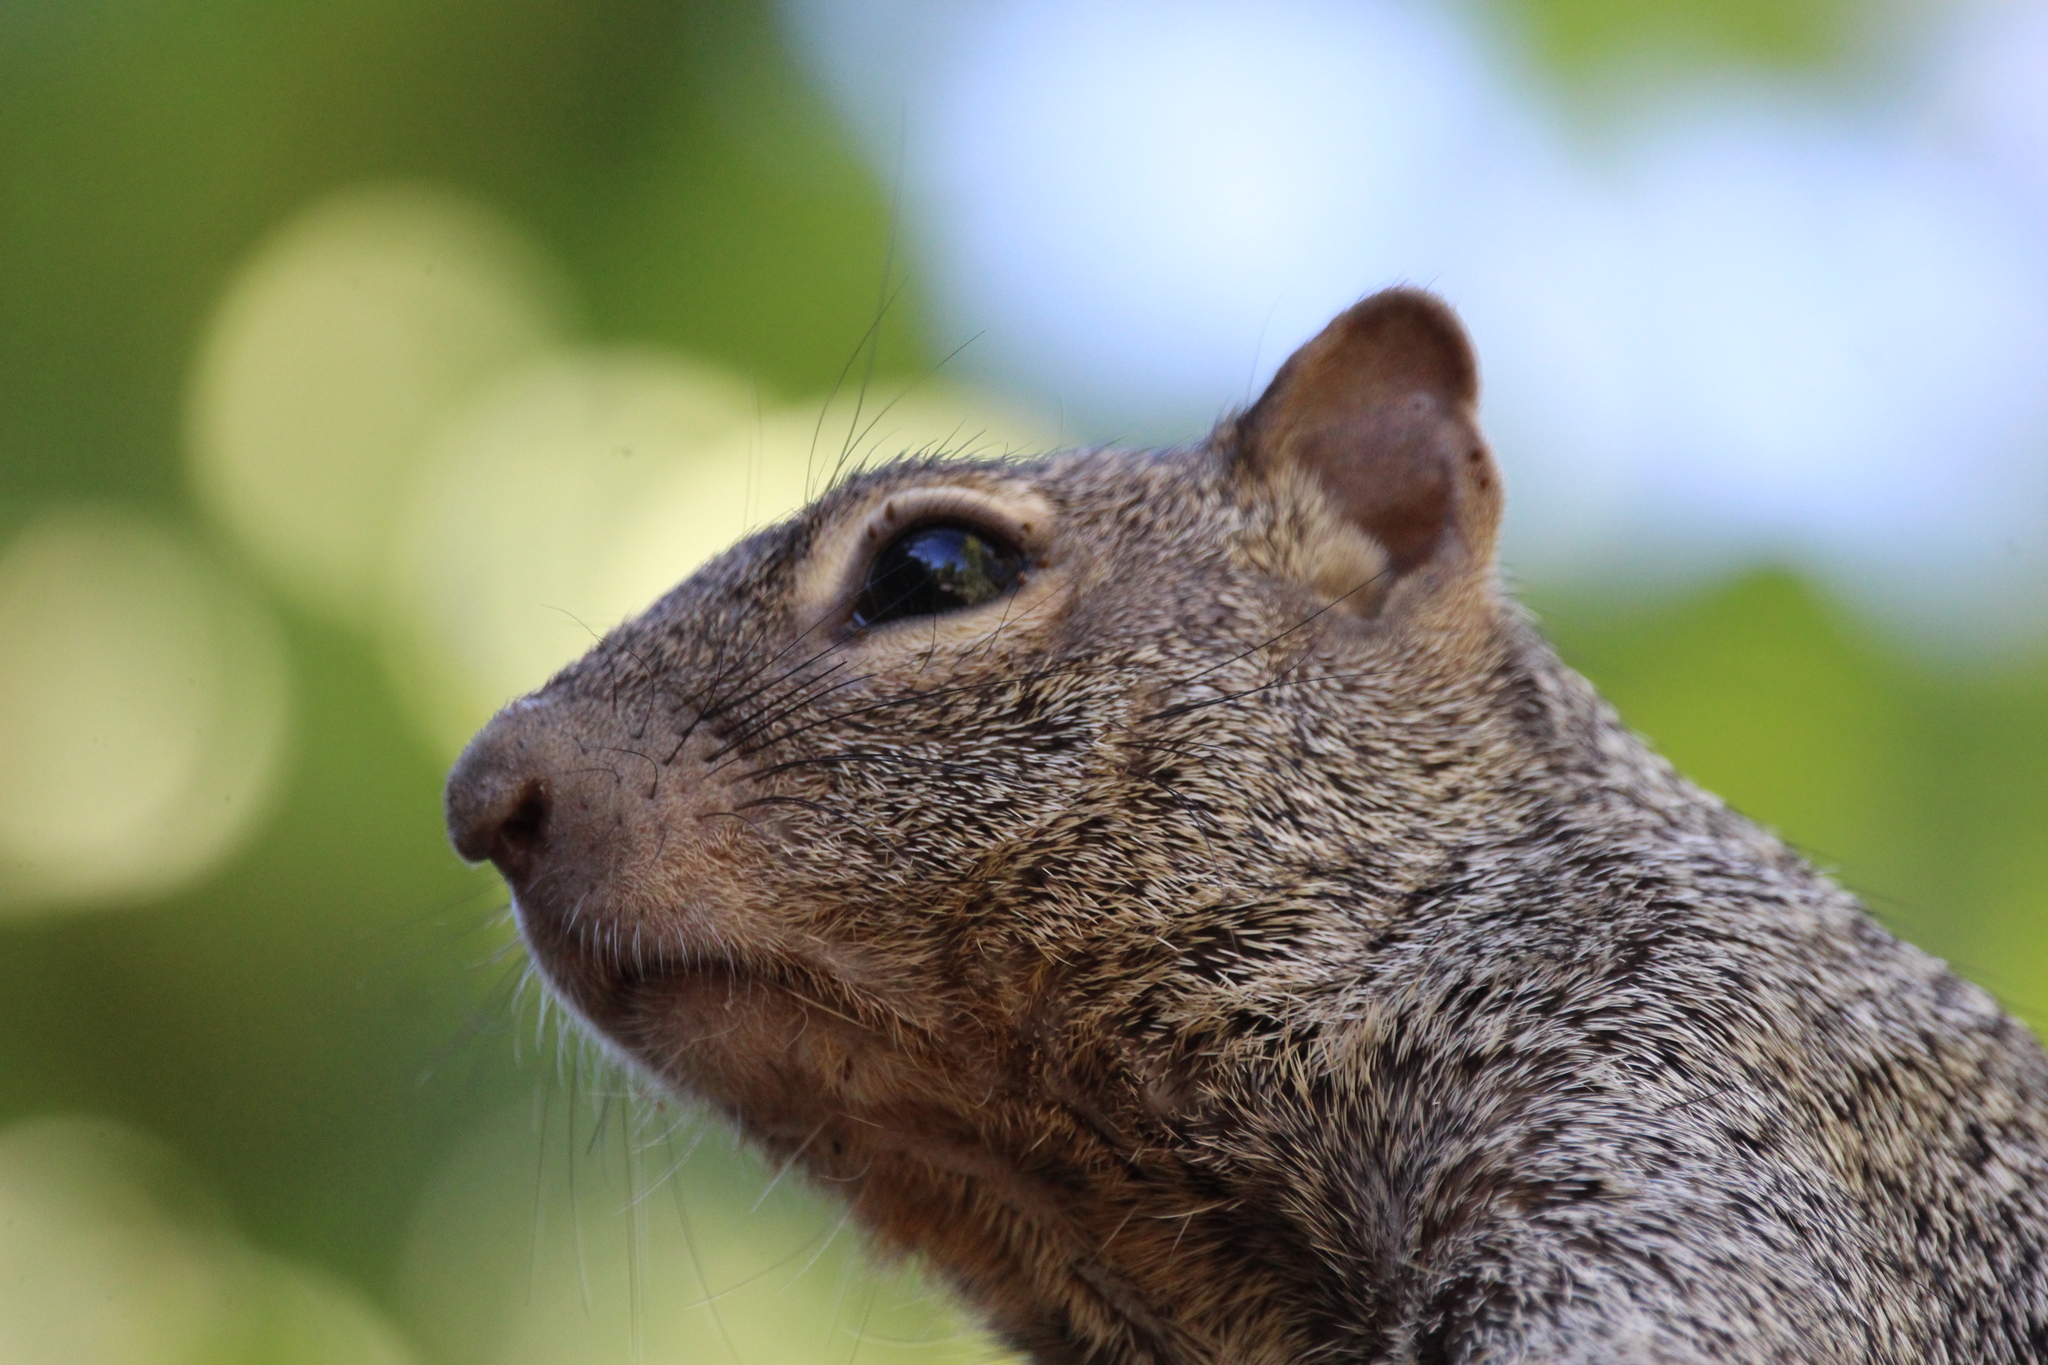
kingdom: Animalia
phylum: Chordata
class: Mammalia
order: Rodentia
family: Sciuridae
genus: Otospermophilus
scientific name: Otospermophilus variegatus
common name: Rock squirrel
